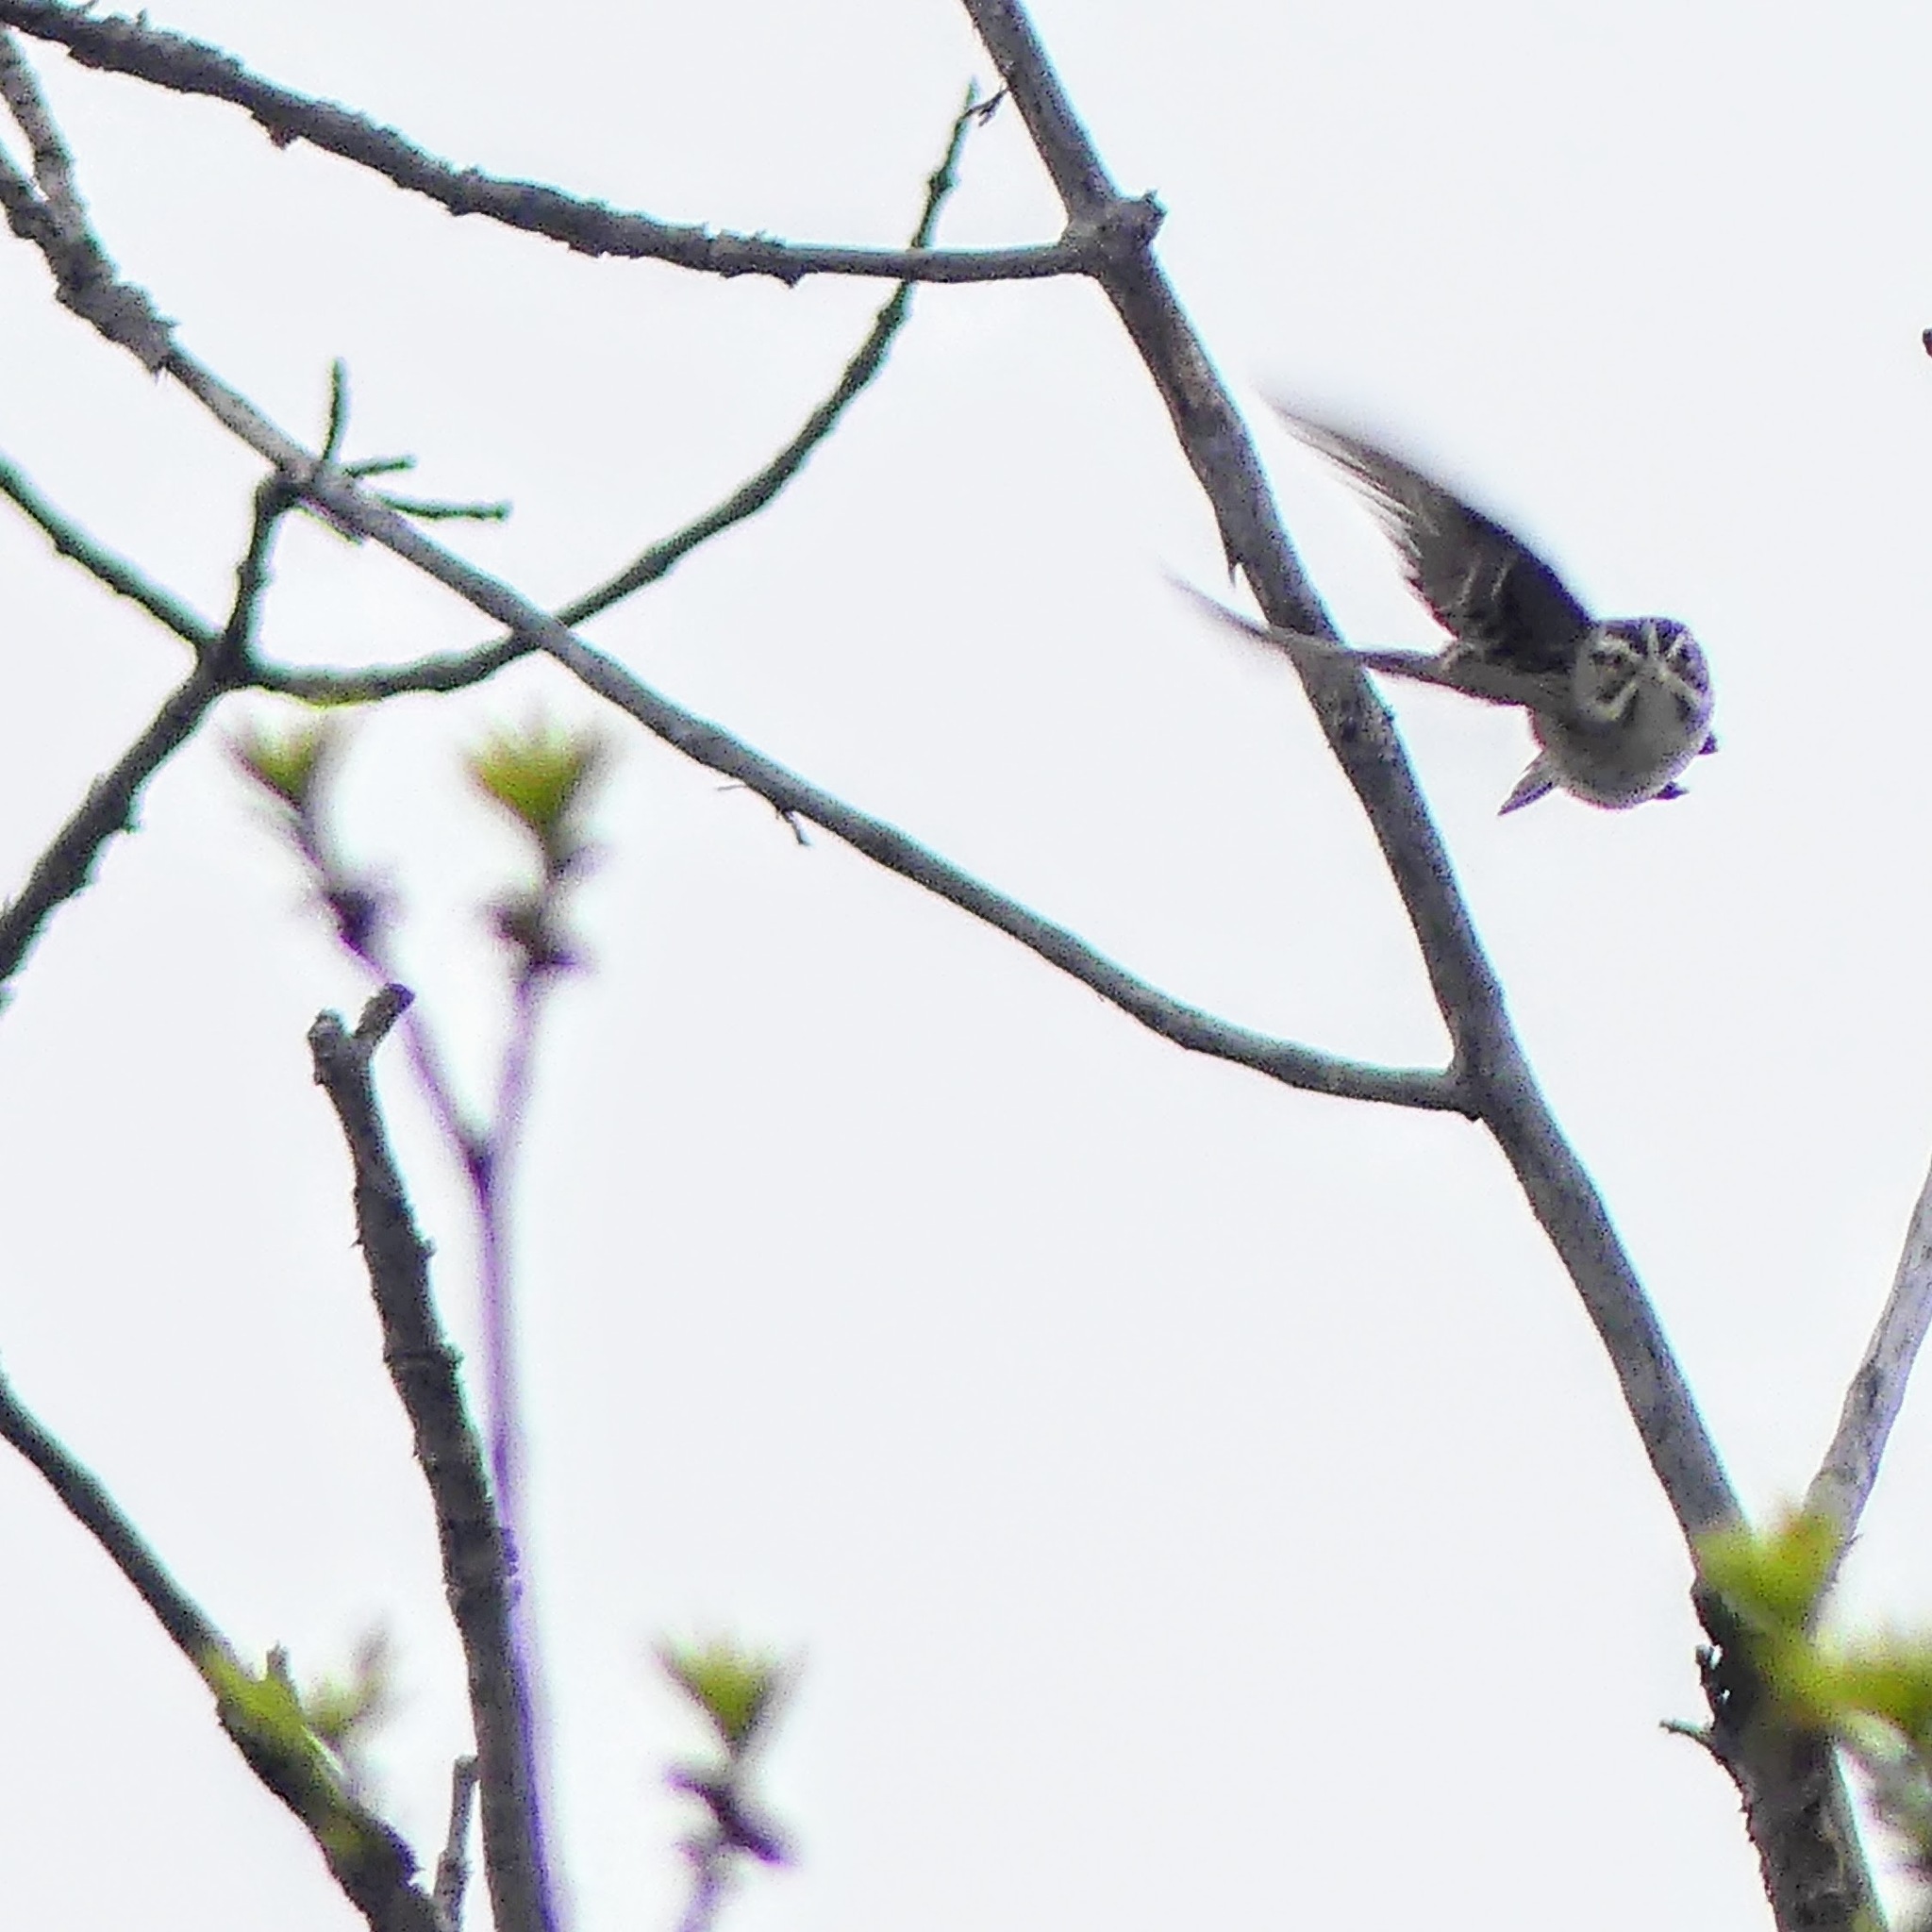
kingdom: Animalia
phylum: Chordata
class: Aves
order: Passeriformes
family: Passerellidae
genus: Spizella
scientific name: Spizella pallida
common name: Clay-colored sparrow
